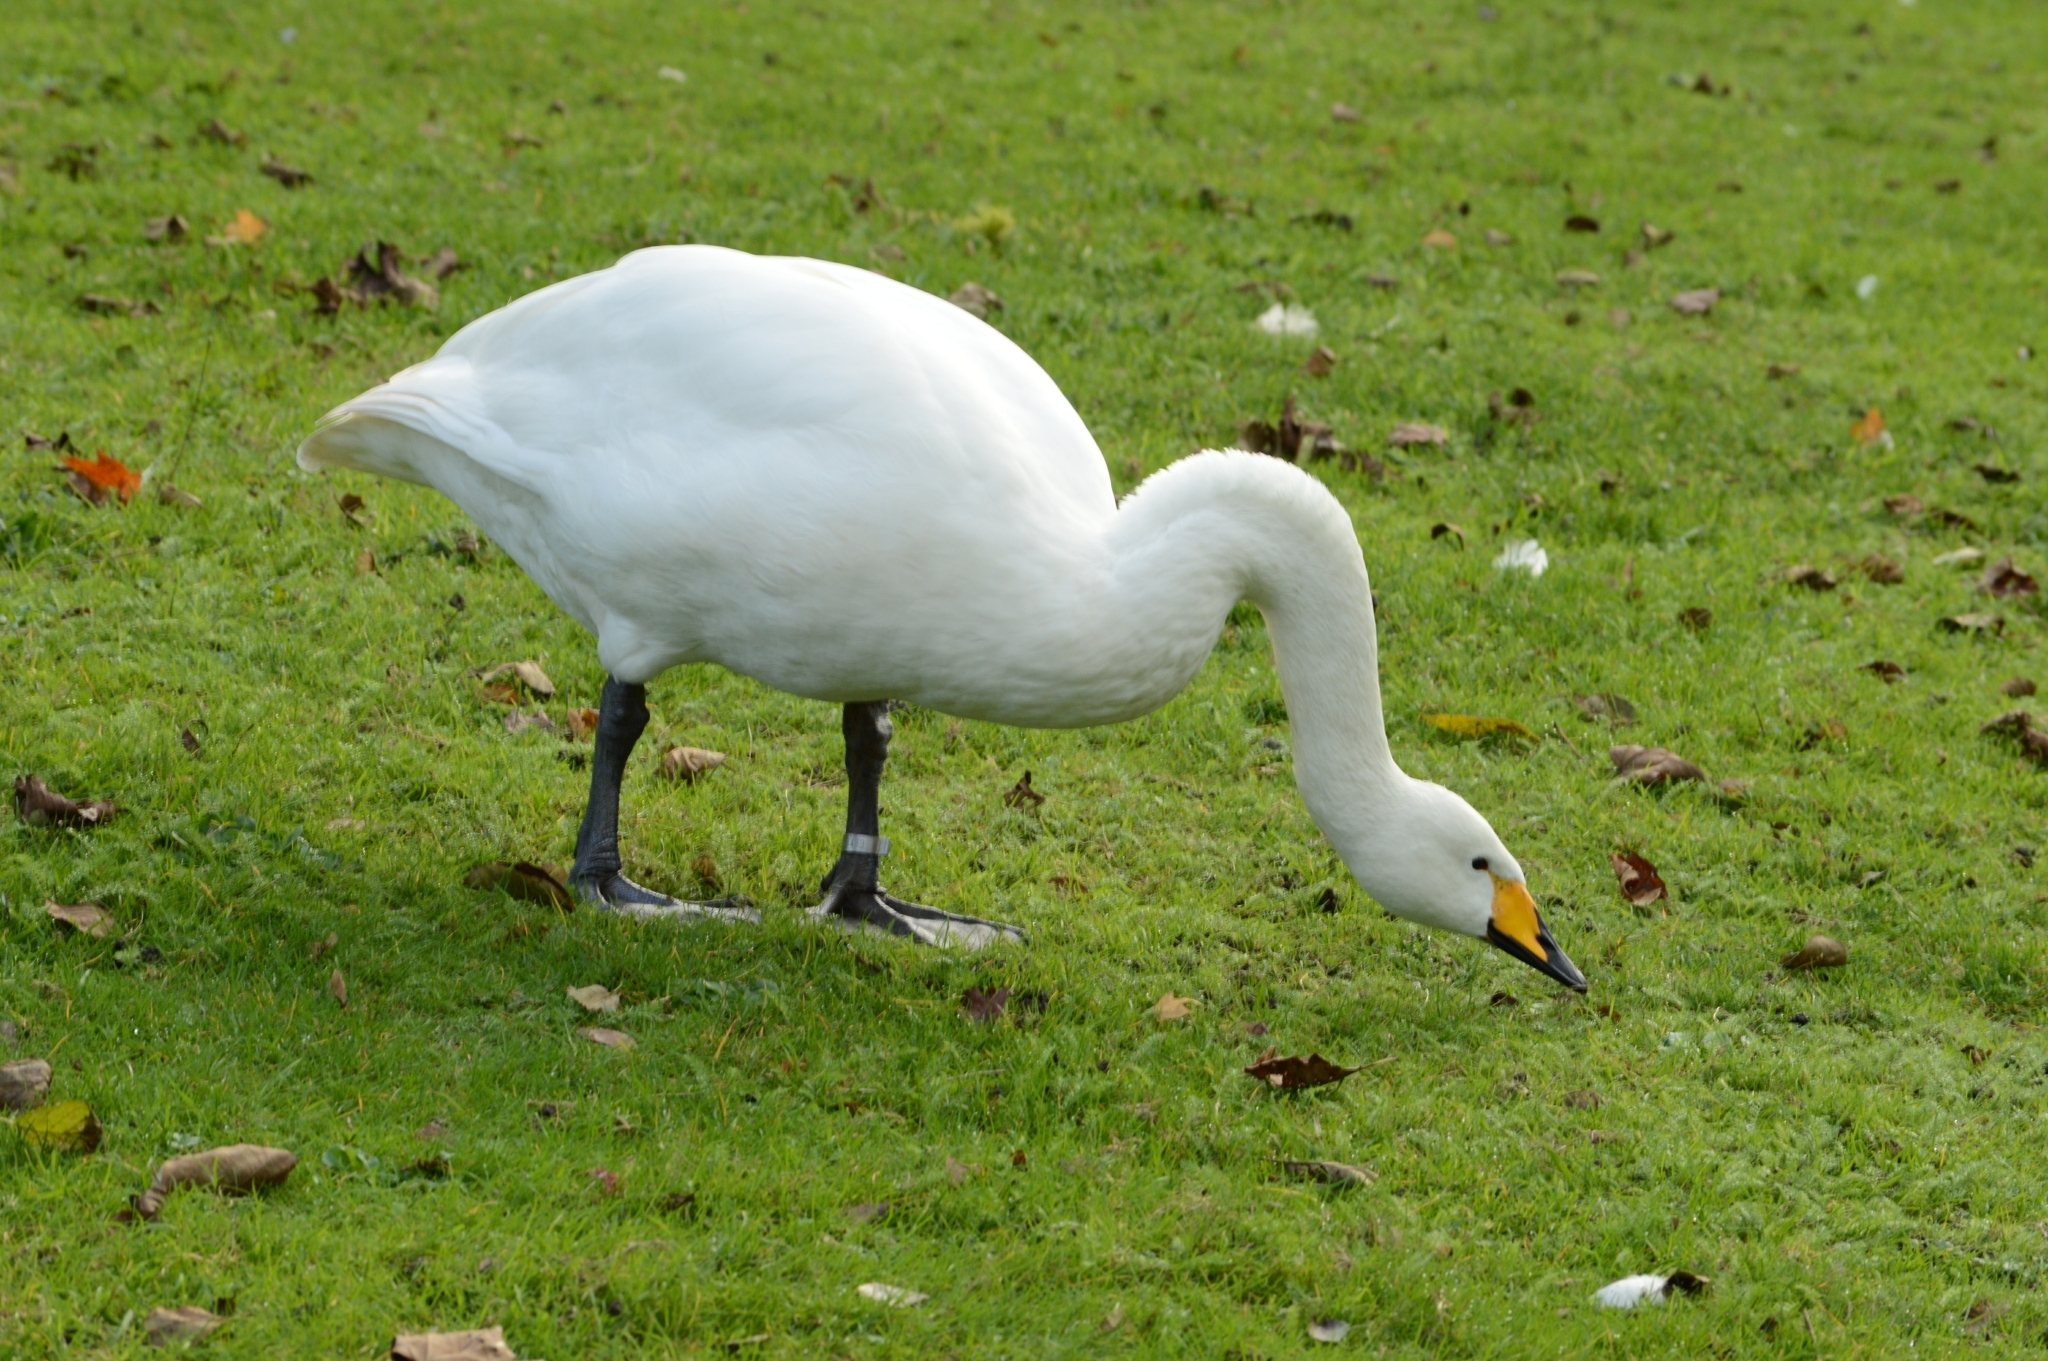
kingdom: Animalia
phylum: Chordata
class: Aves
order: Anseriformes
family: Anatidae
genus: Cygnus
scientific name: Cygnus cygnus
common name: Whooper swan
